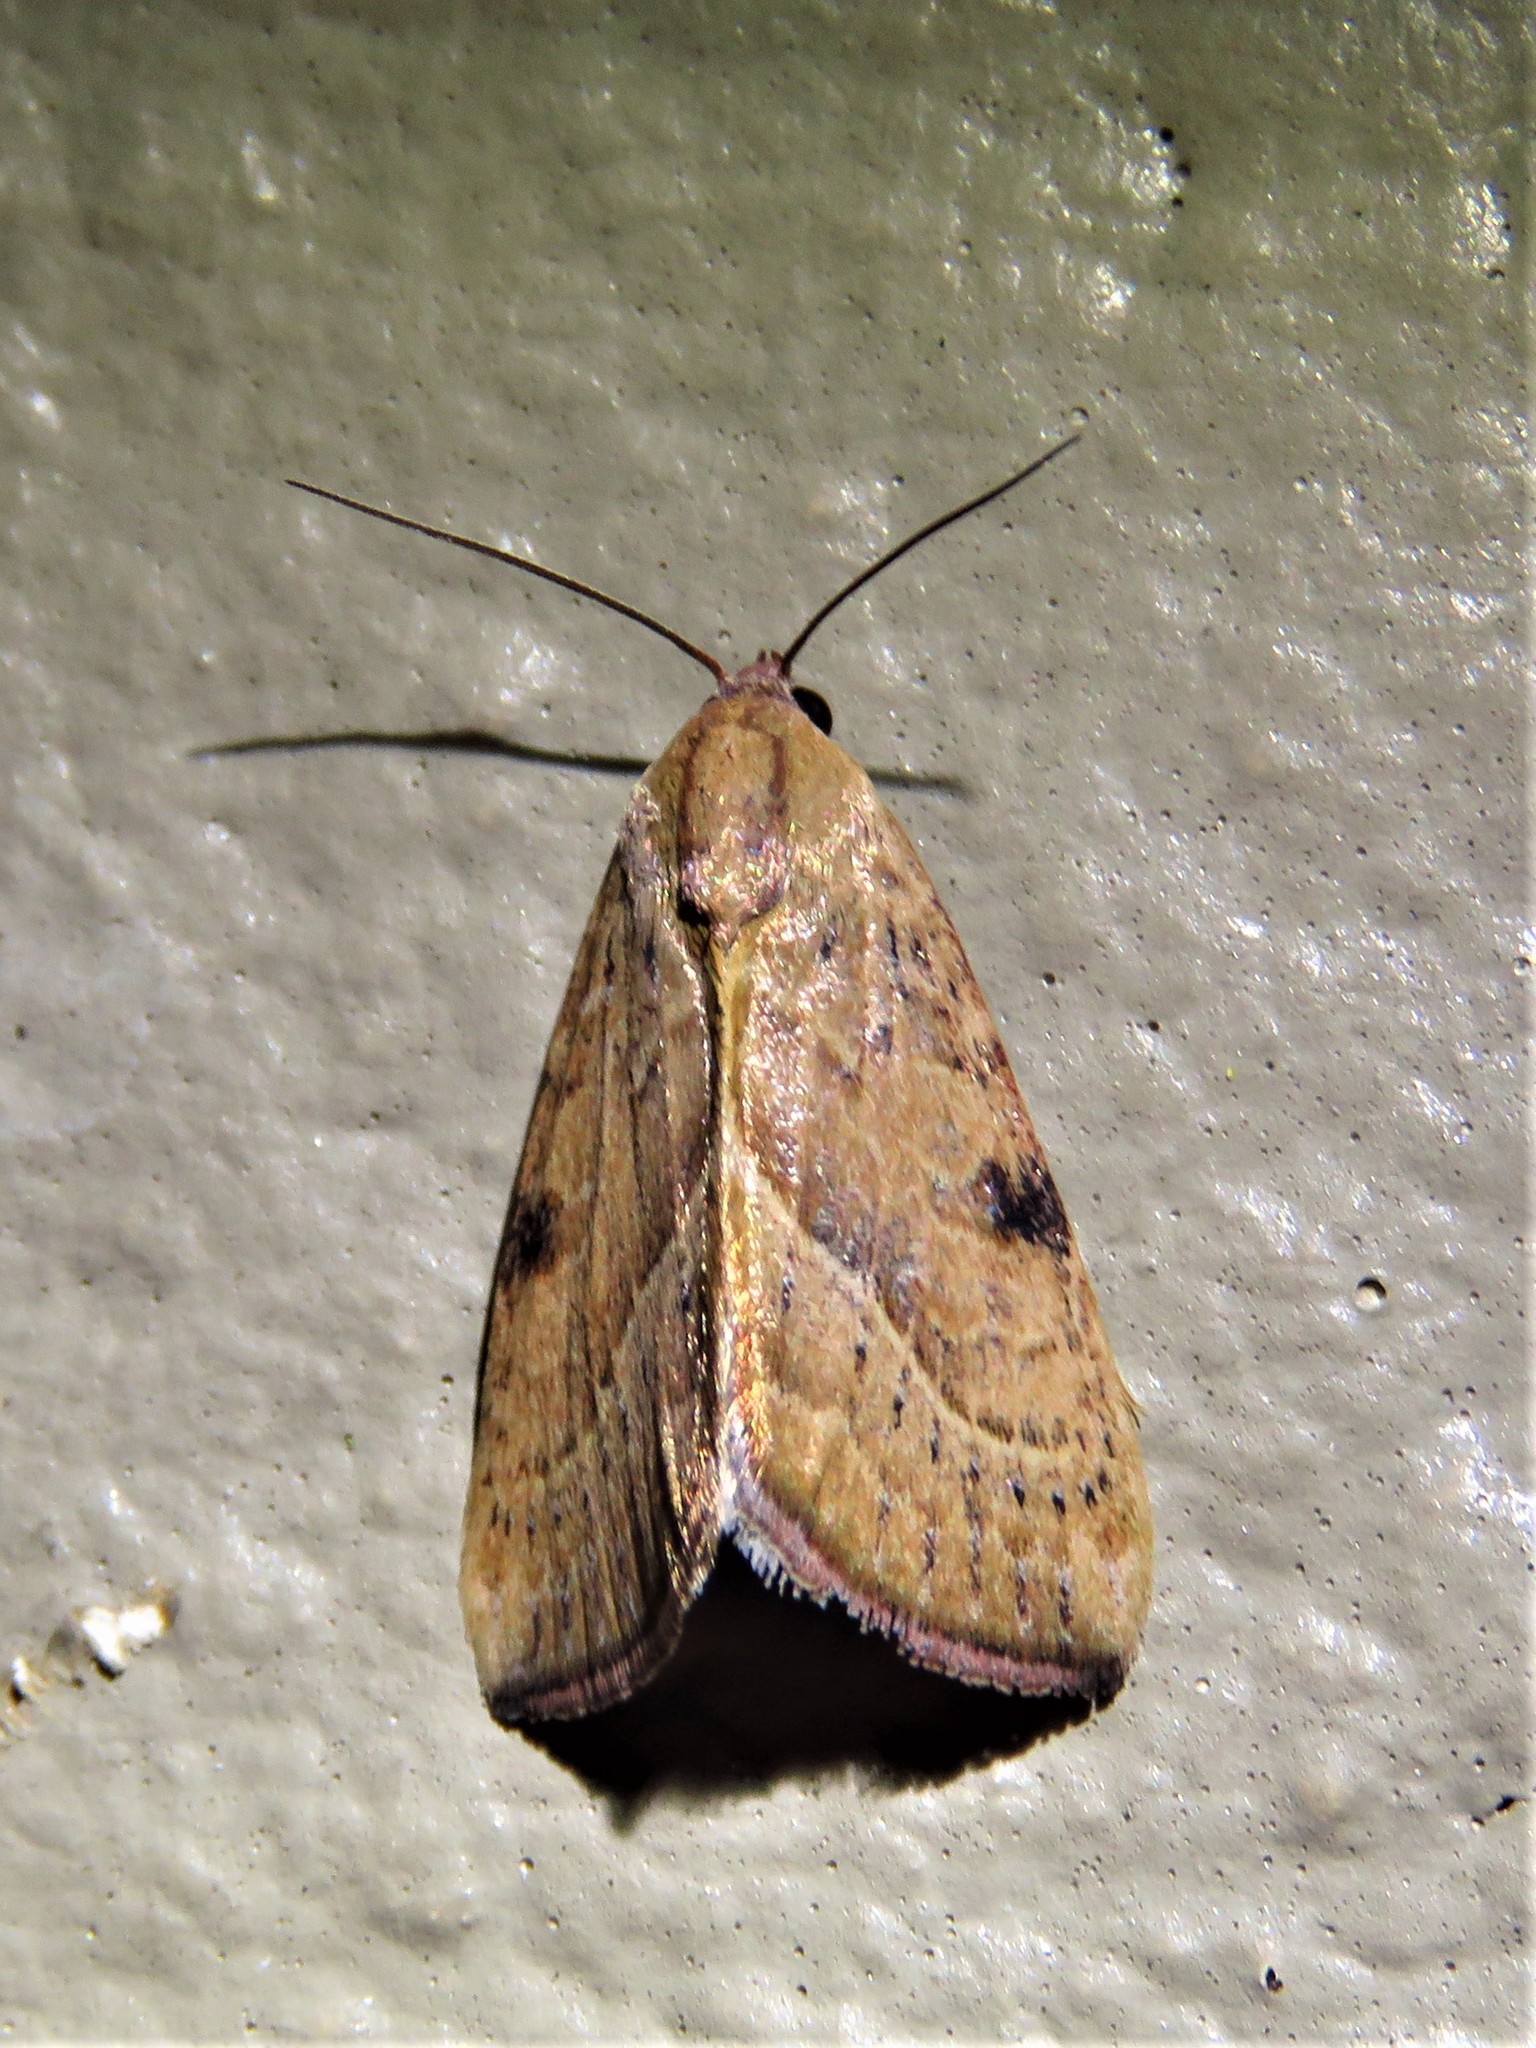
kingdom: Animalia
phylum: Arthropoda
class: Insecta
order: Lepidoptera
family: Noctuidae
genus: Galgula
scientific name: Galgula partita
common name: Wedgeling
